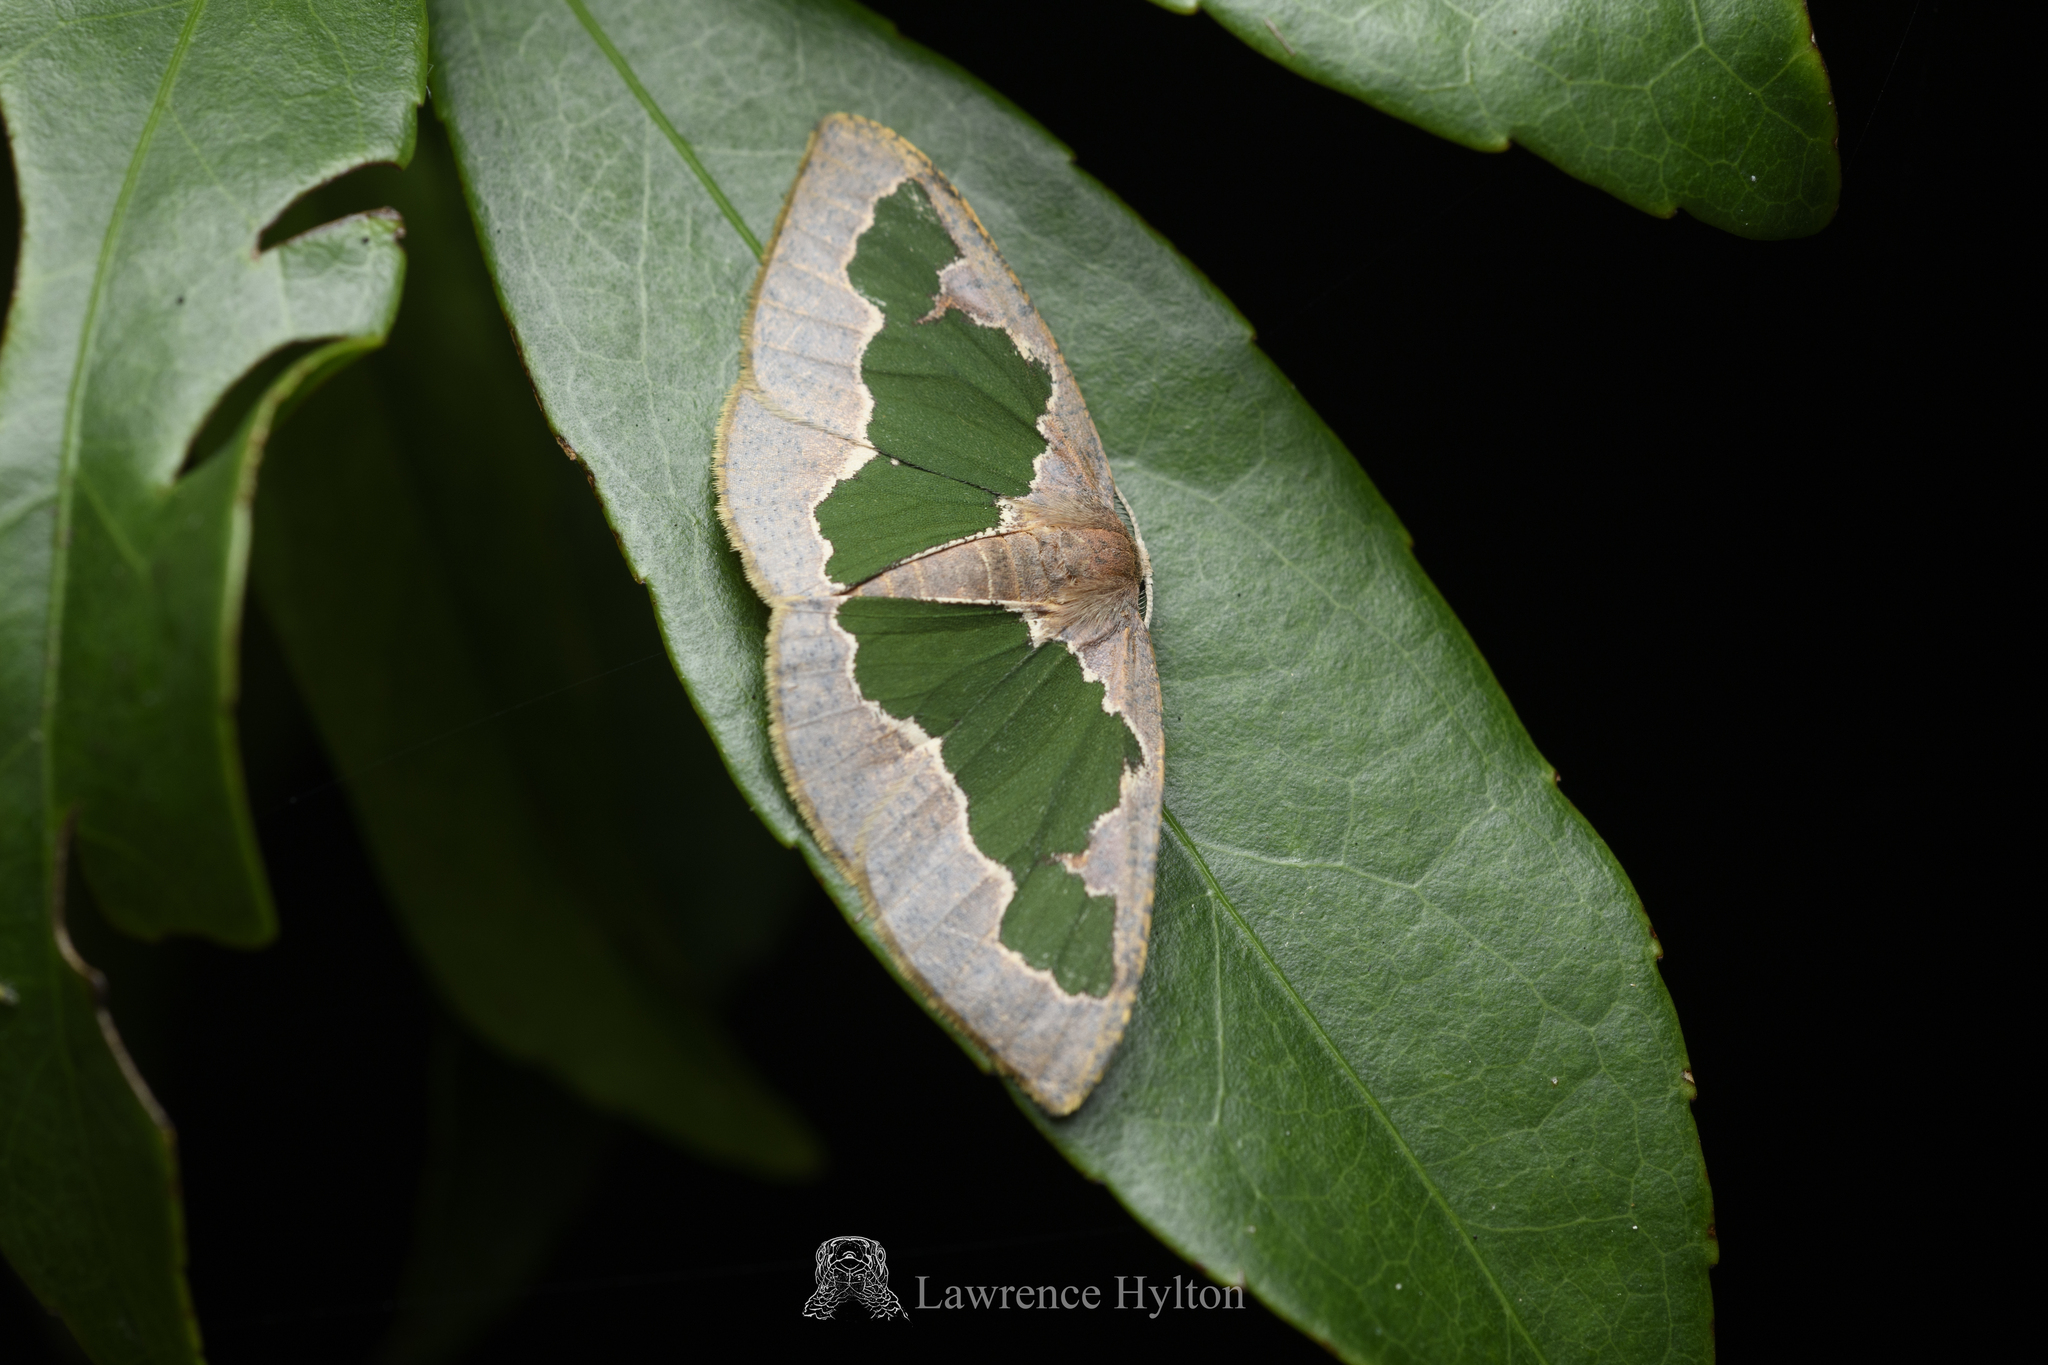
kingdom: Animalia
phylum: Arthropoda
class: Insecta
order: Lepidoptera
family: Geometridae
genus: Celenna
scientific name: Celenna festivaria
